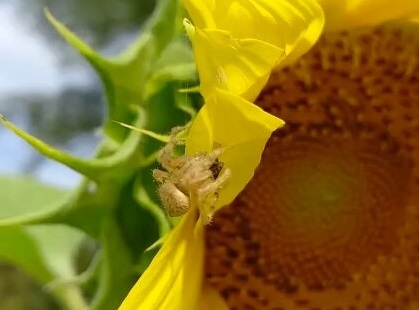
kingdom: Animalia
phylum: Arthropoda
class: Arachnida
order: Araneae
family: Araneidae
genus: Eriophora
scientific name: Eriophora edax
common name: Orb weavers
